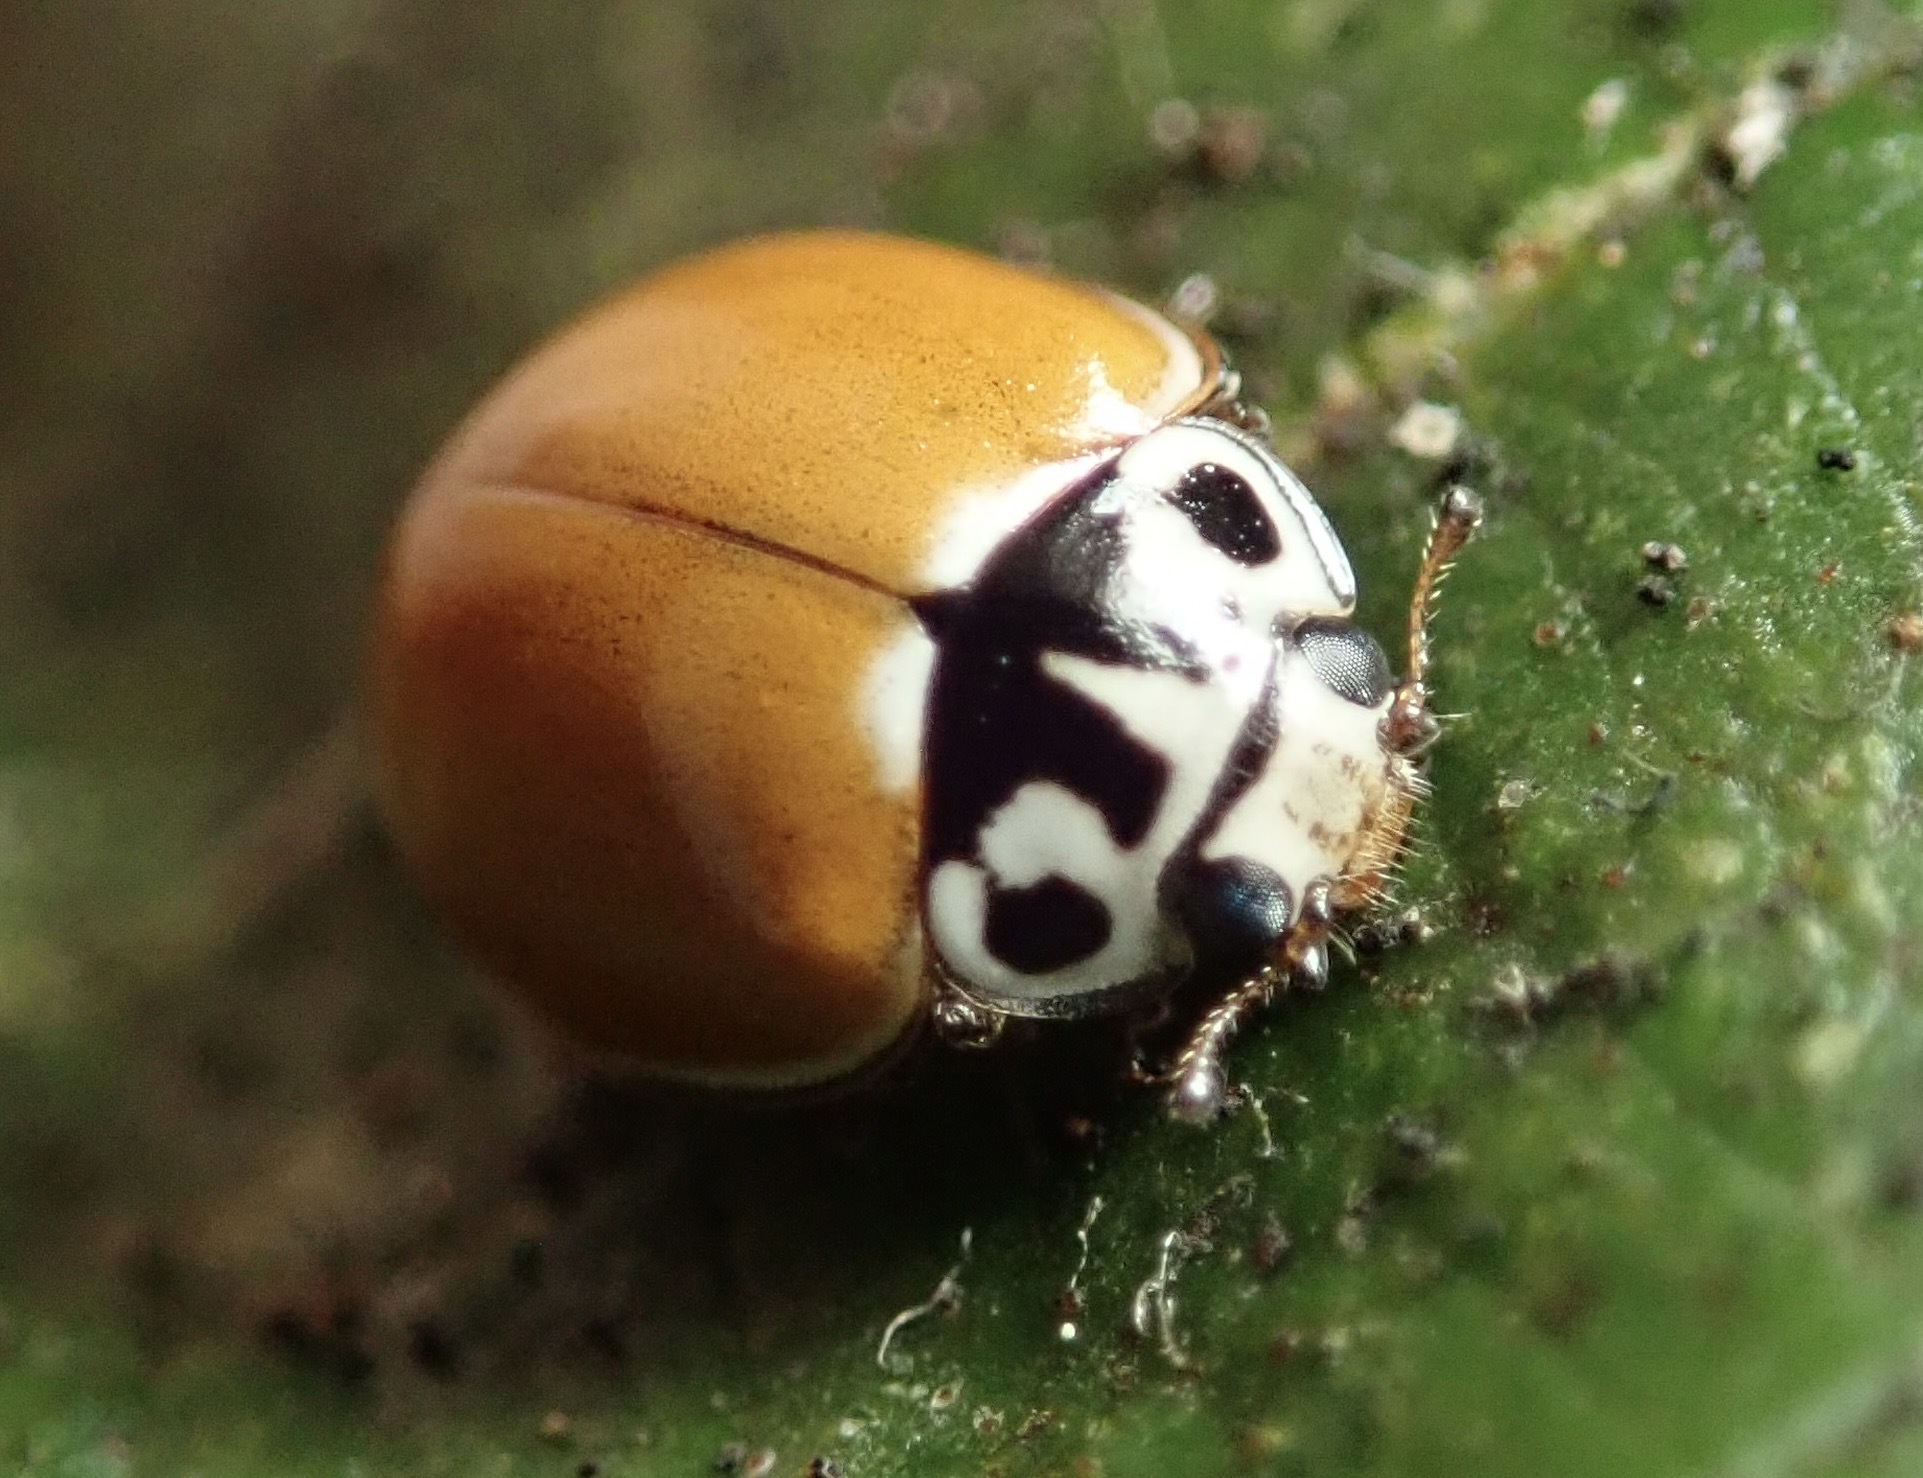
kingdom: Animalia
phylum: Arthropoda
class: Insecta
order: Coleoptera
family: Coccinellidae
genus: Cycloneda
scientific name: Cycloneda polita
